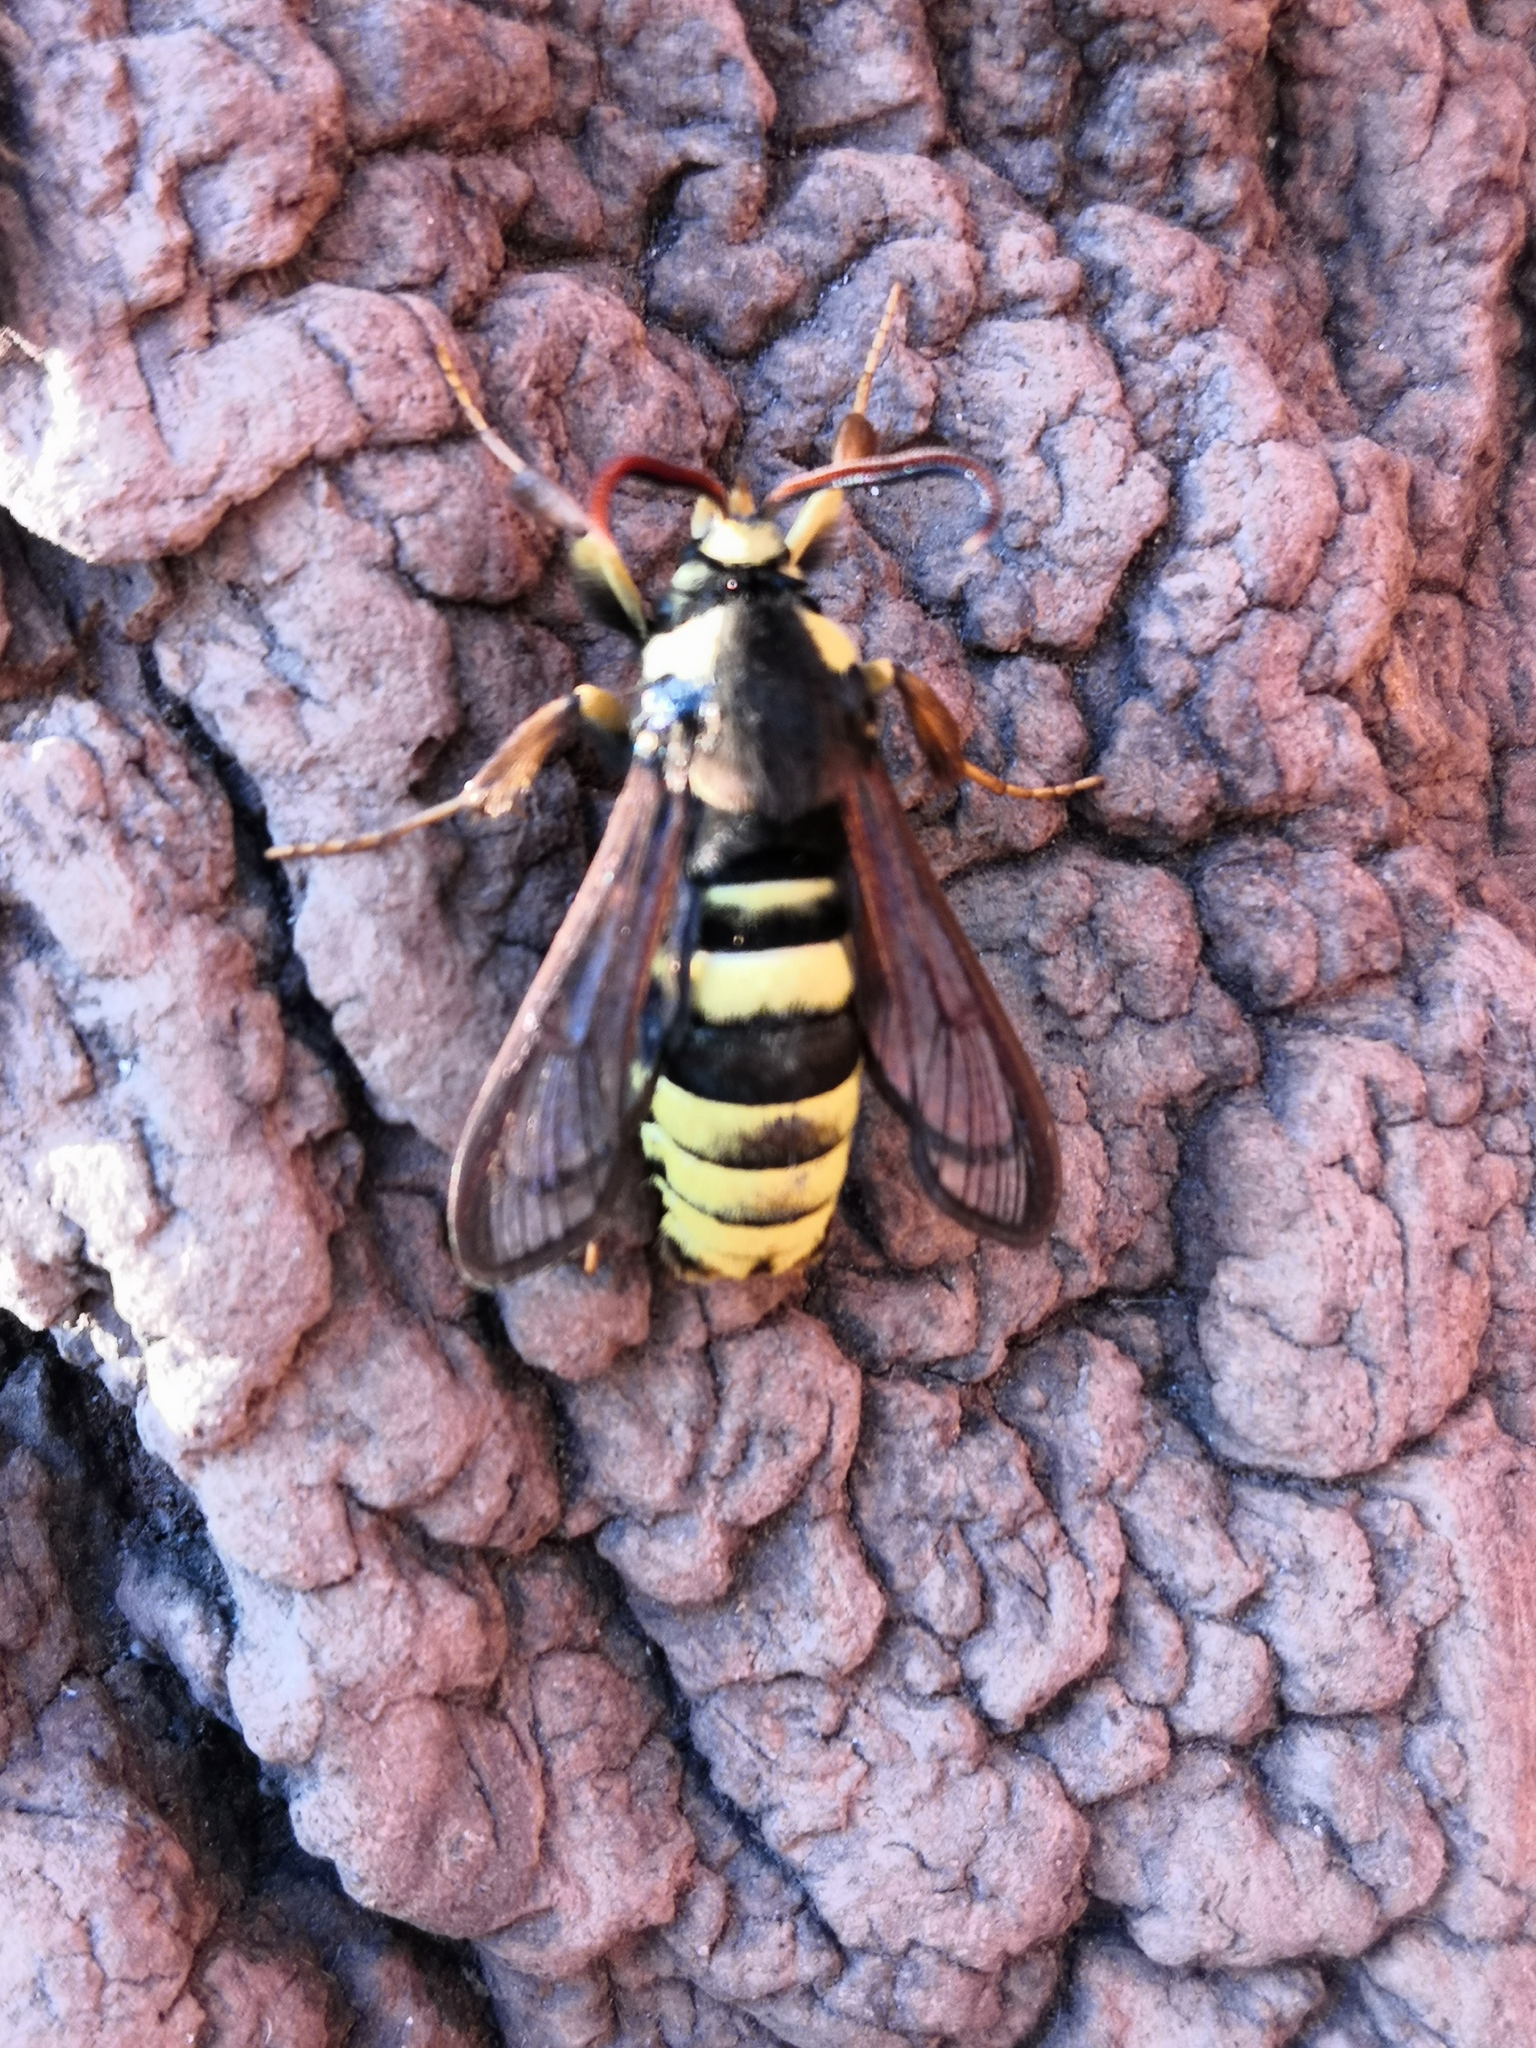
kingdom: Animalia
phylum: Arthropoda
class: Insecta
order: Lepidoptera
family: Sesiidae
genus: Sesia
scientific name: Sesia apiformis
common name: Hornet moth
